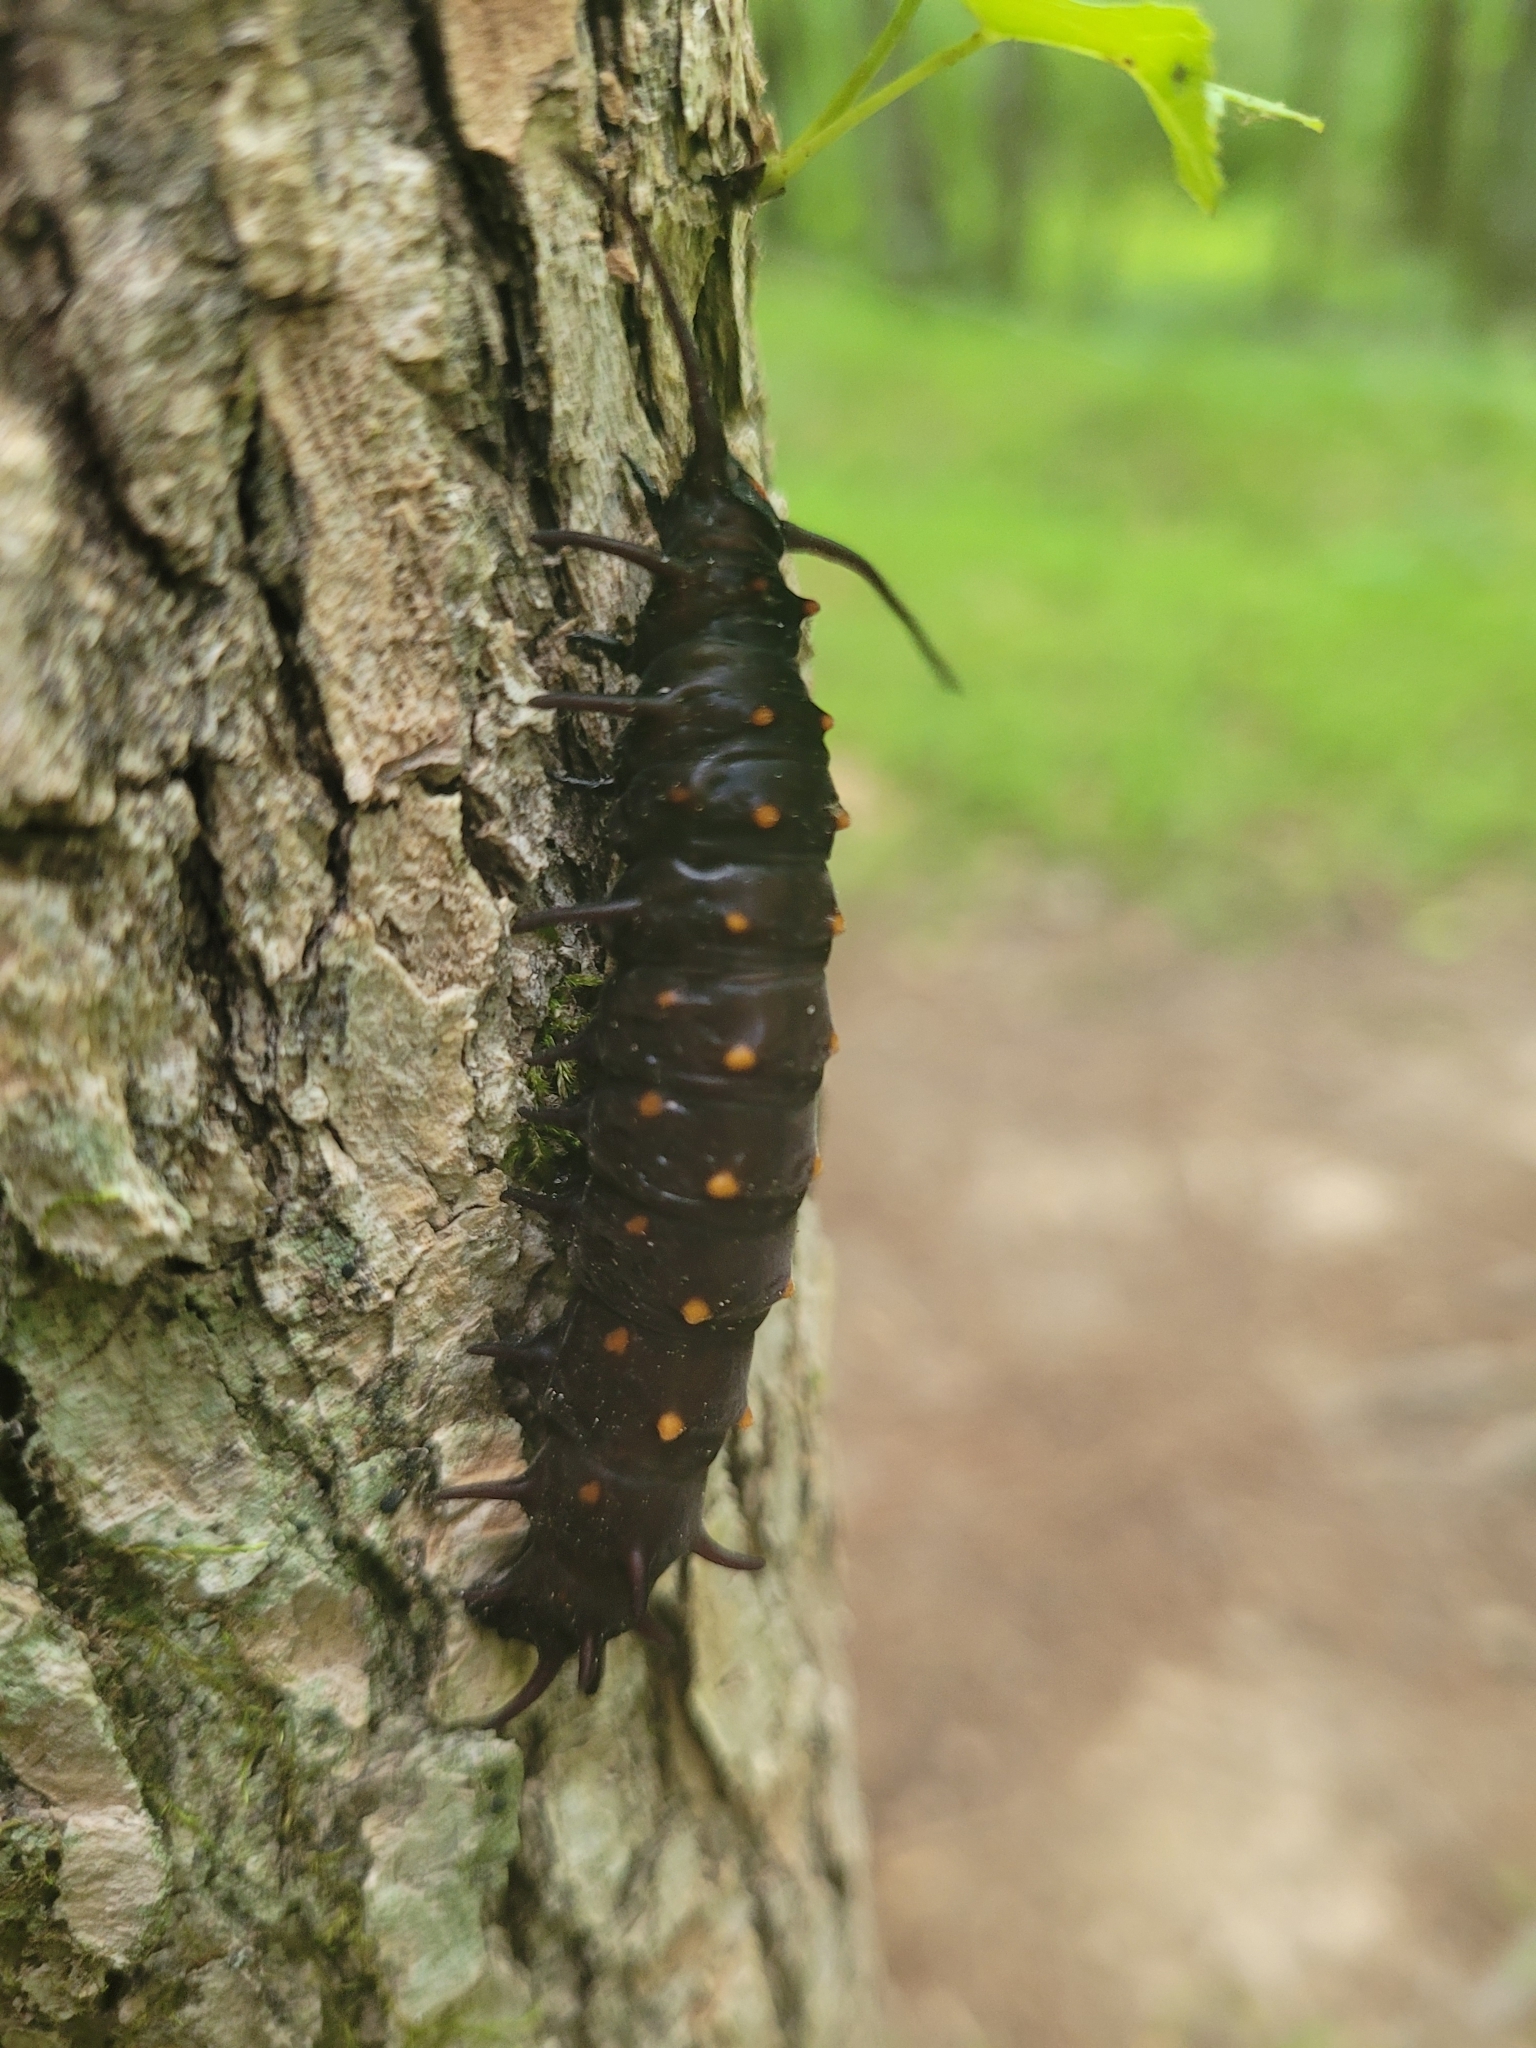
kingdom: Animalia
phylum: Arthropoda
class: Insecta
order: Lepidoptera
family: Papilionidae
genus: Battus
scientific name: Battus philenor
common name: Pipevine swallowtail
